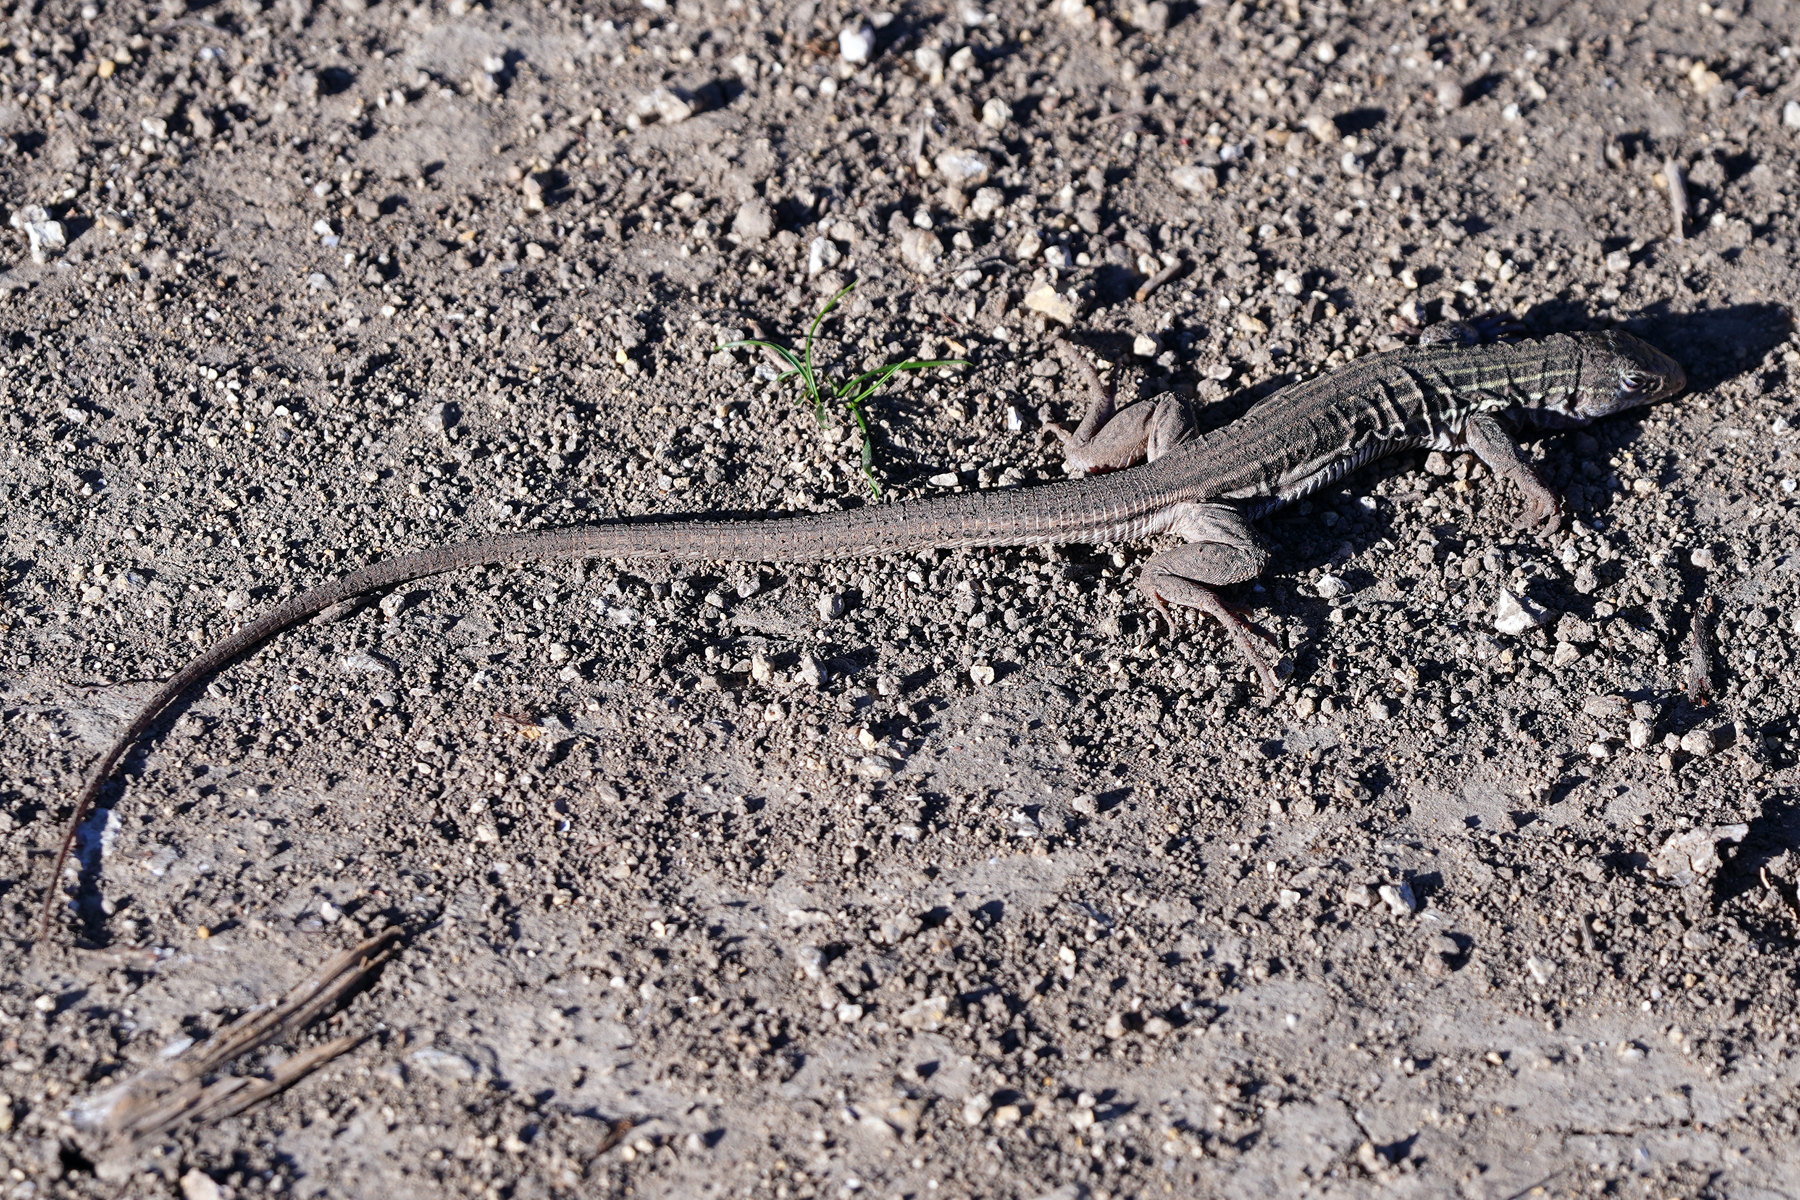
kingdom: Animalia
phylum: Chordata
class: Squamata
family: Teiidae
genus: Aspidoscelis
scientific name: Aspidoscelis gularis
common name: Eastern spotted whiptail
